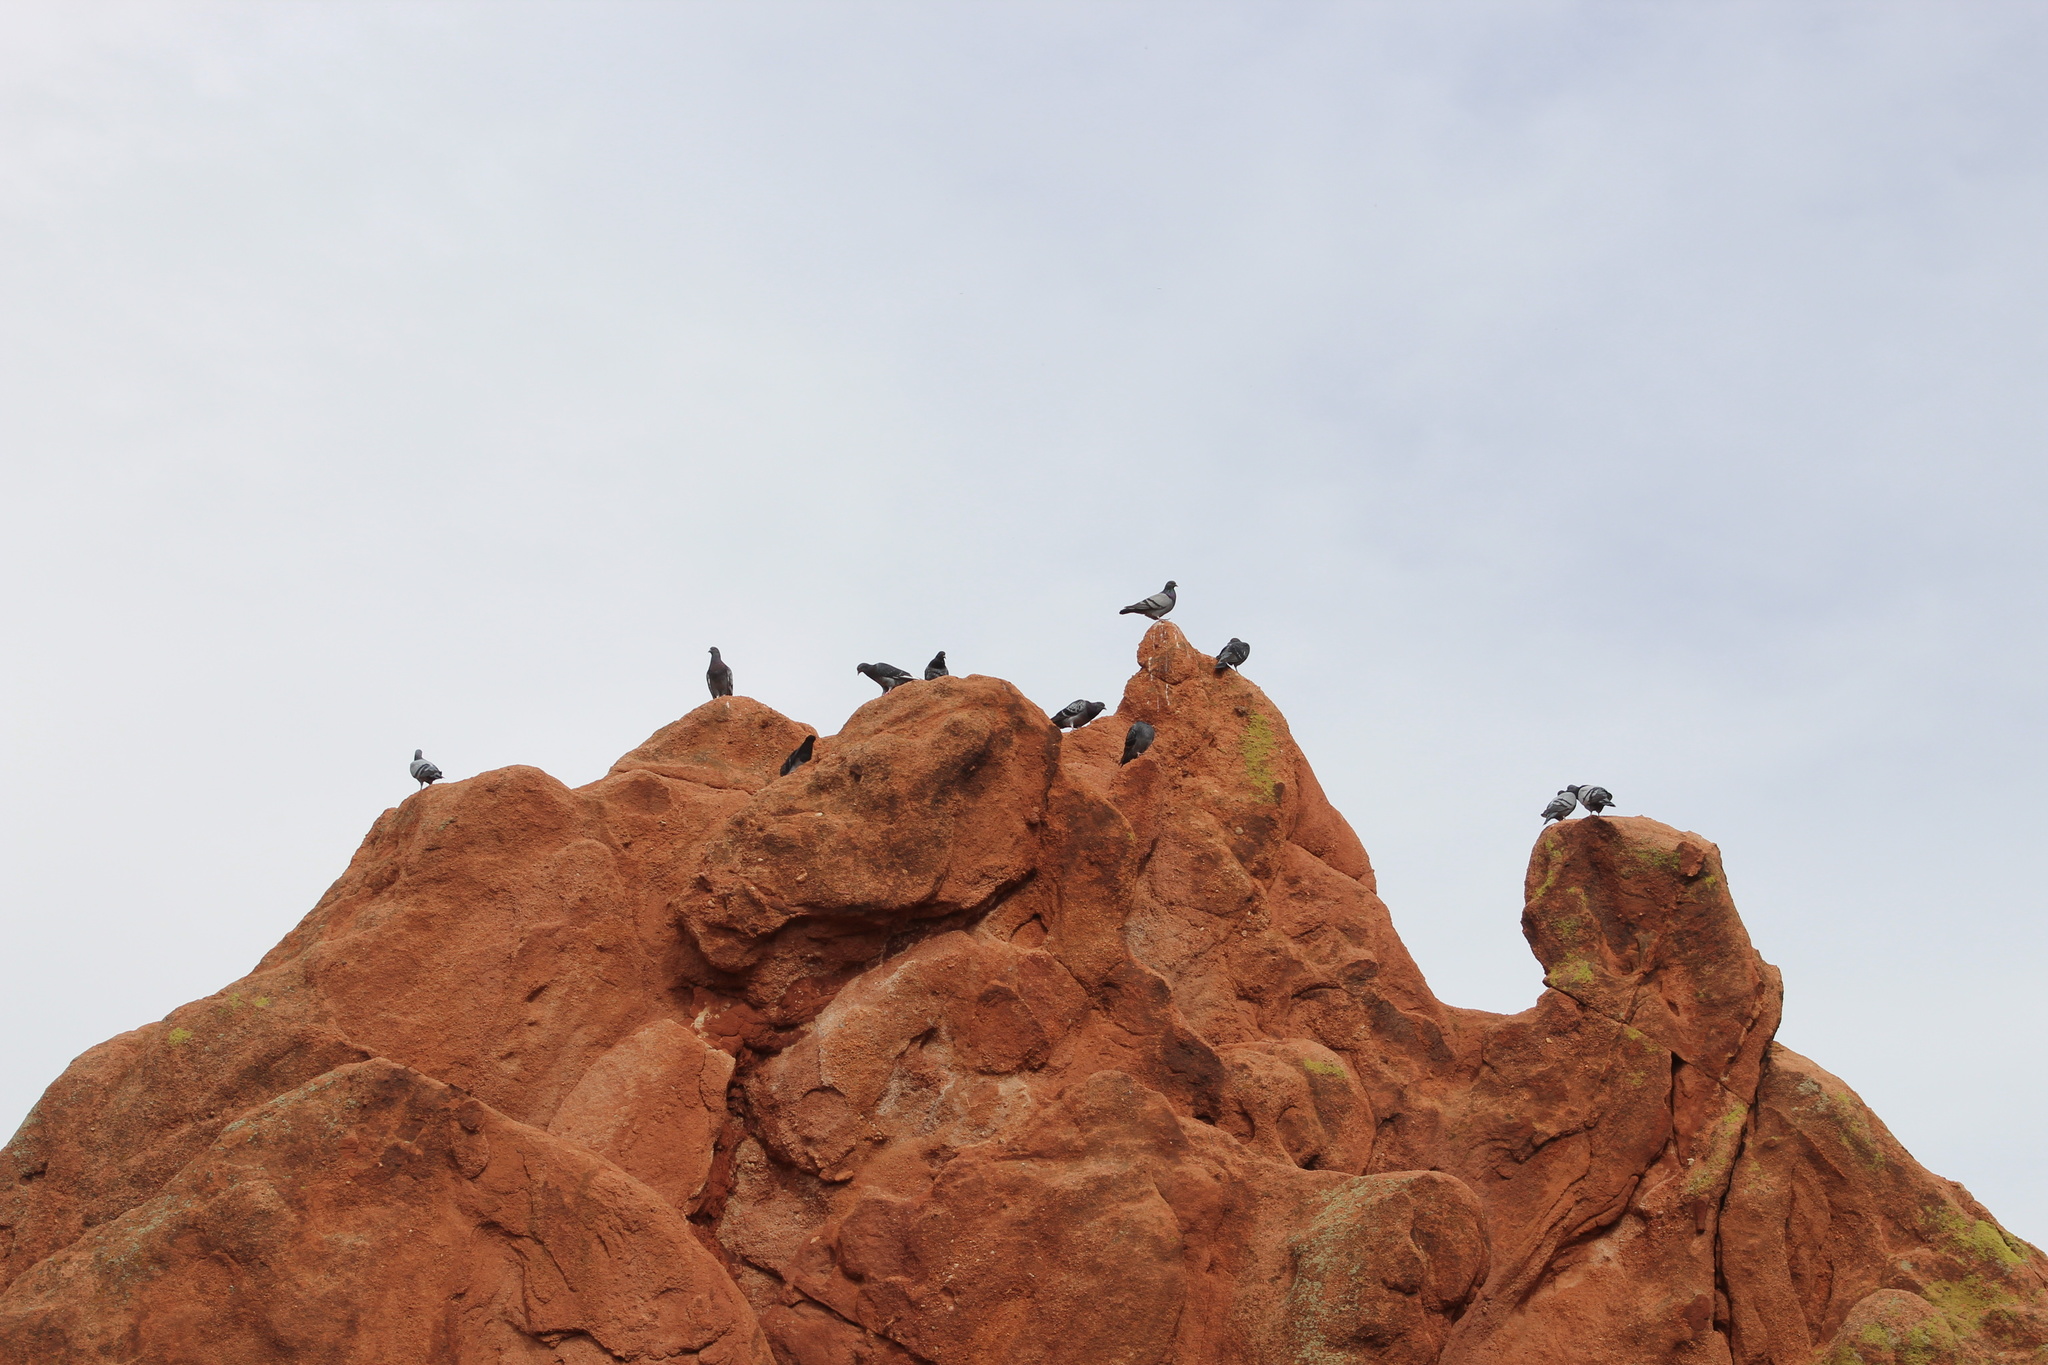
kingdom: Animalia
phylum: Chordata
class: Aves
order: Columbiformes
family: Columbidae
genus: Columba
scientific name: Columba livia
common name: Rock pigeon
